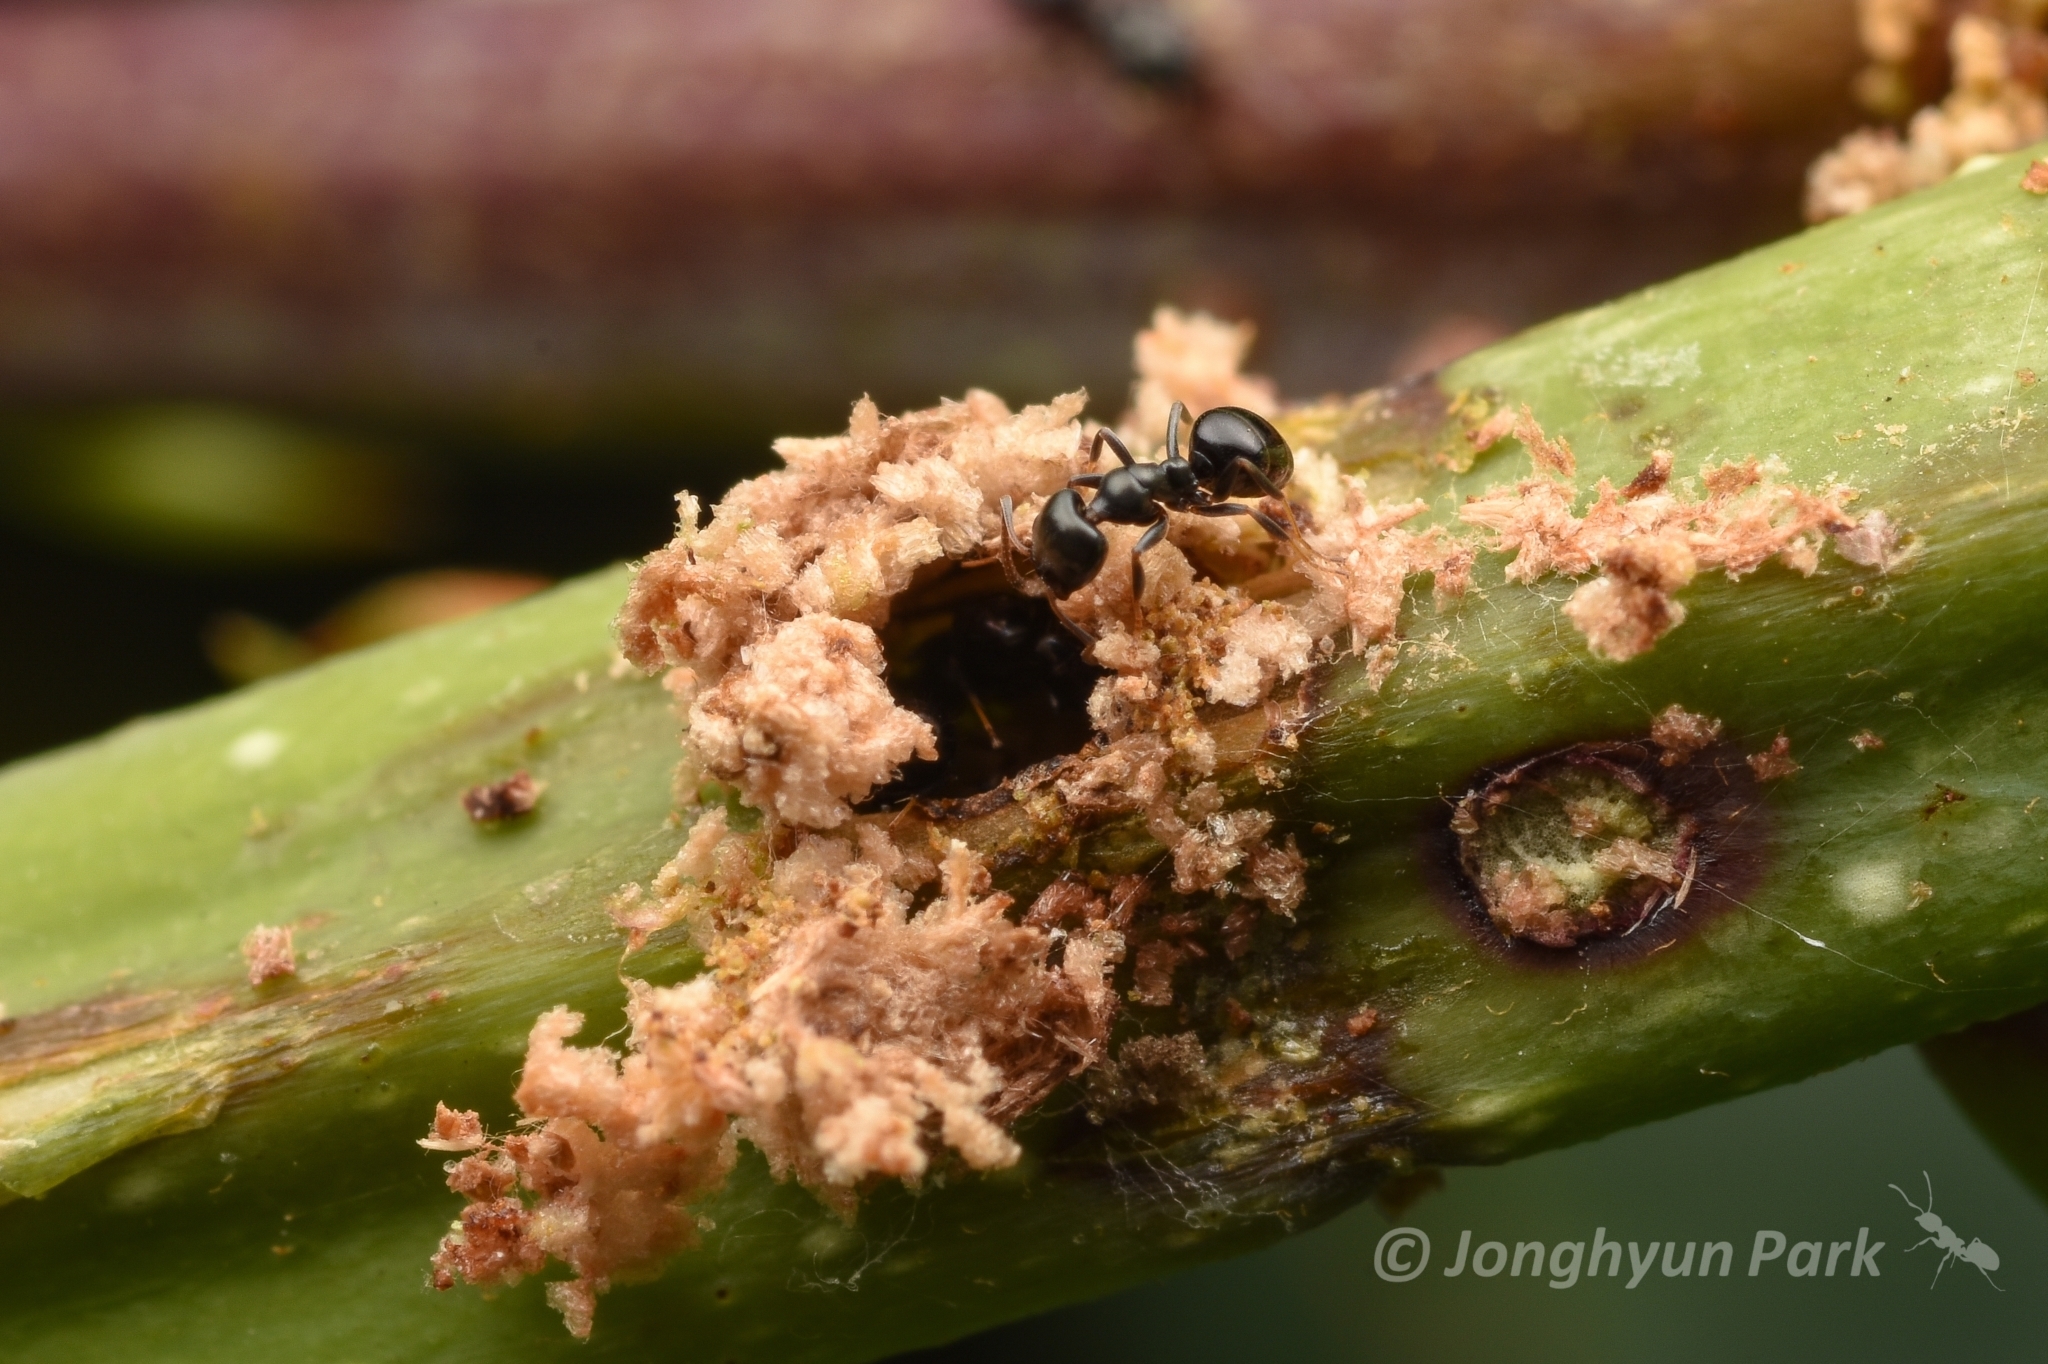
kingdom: Animalia
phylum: Arthropoda
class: Insecta
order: Hymenoptera
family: Formicidae
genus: Ochetellus
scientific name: Ochetellus glaber
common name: Ant
